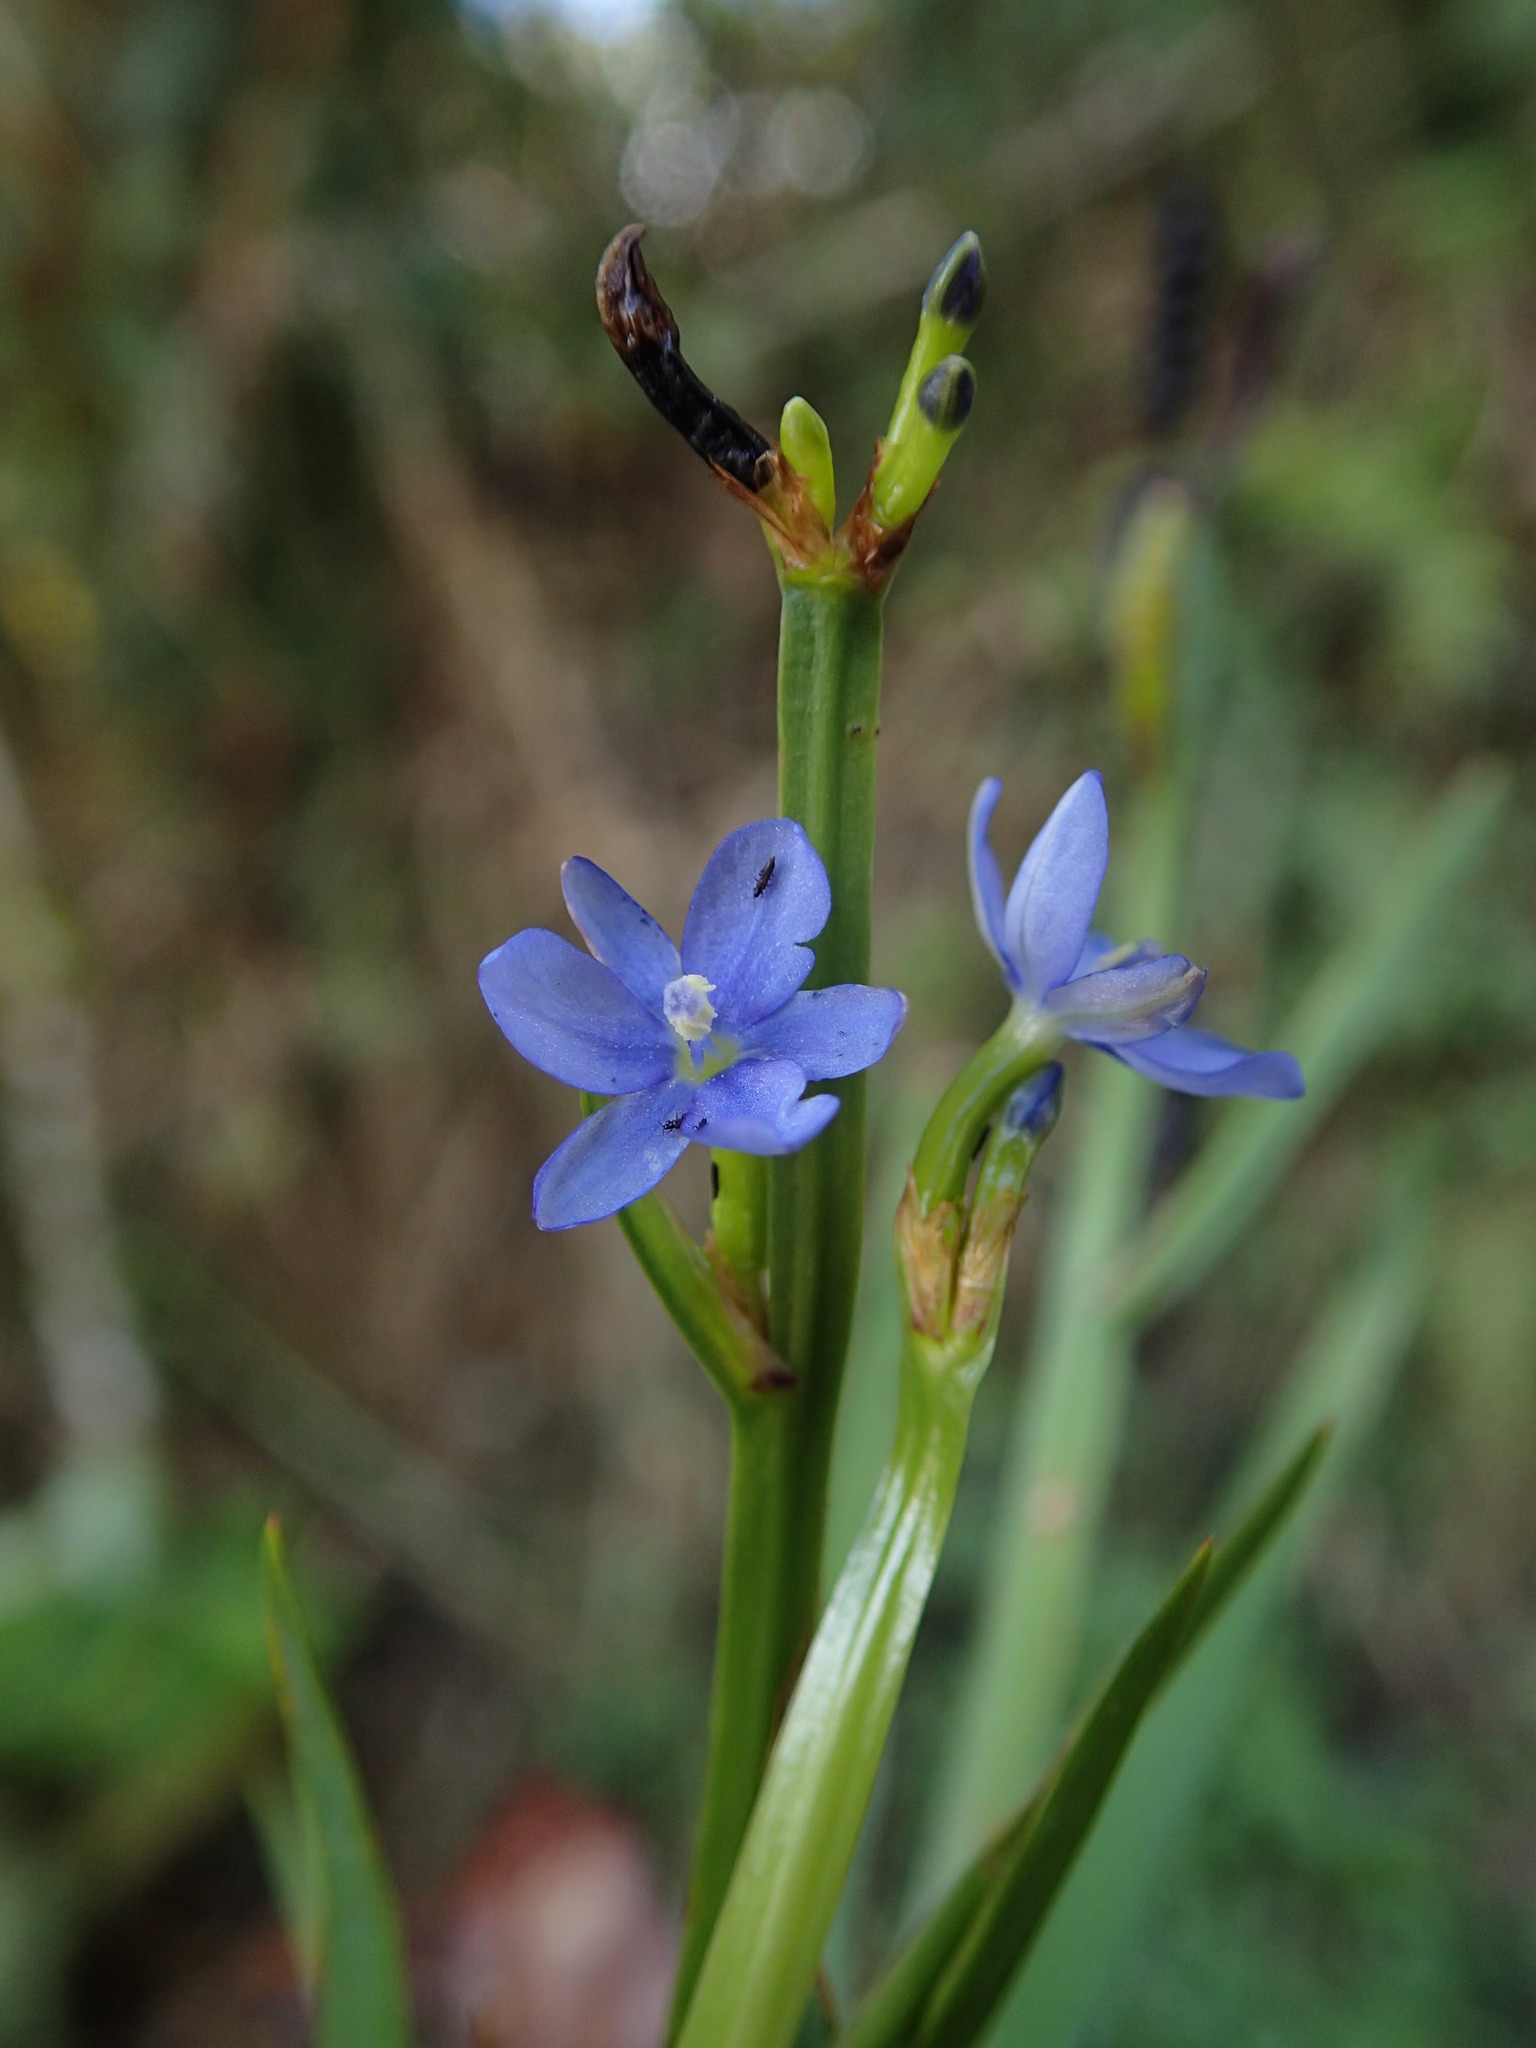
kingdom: Plantae
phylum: Tracheophyta
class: Liliopsida
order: Asparagales
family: Iridaceae
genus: Aristea
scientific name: Aristea cladocarpa
